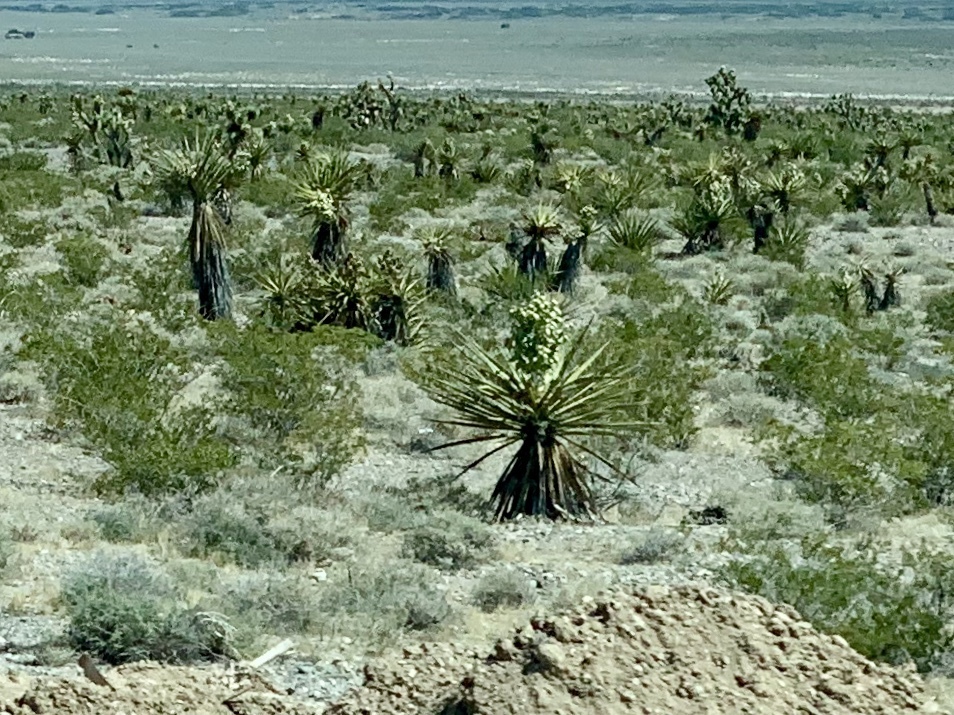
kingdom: Plantae
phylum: Tracheophyta
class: Liliopsida
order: Asparagales
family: Asparagaceae
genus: Yucca
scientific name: Yucca schidigera
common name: Mojave yucca
